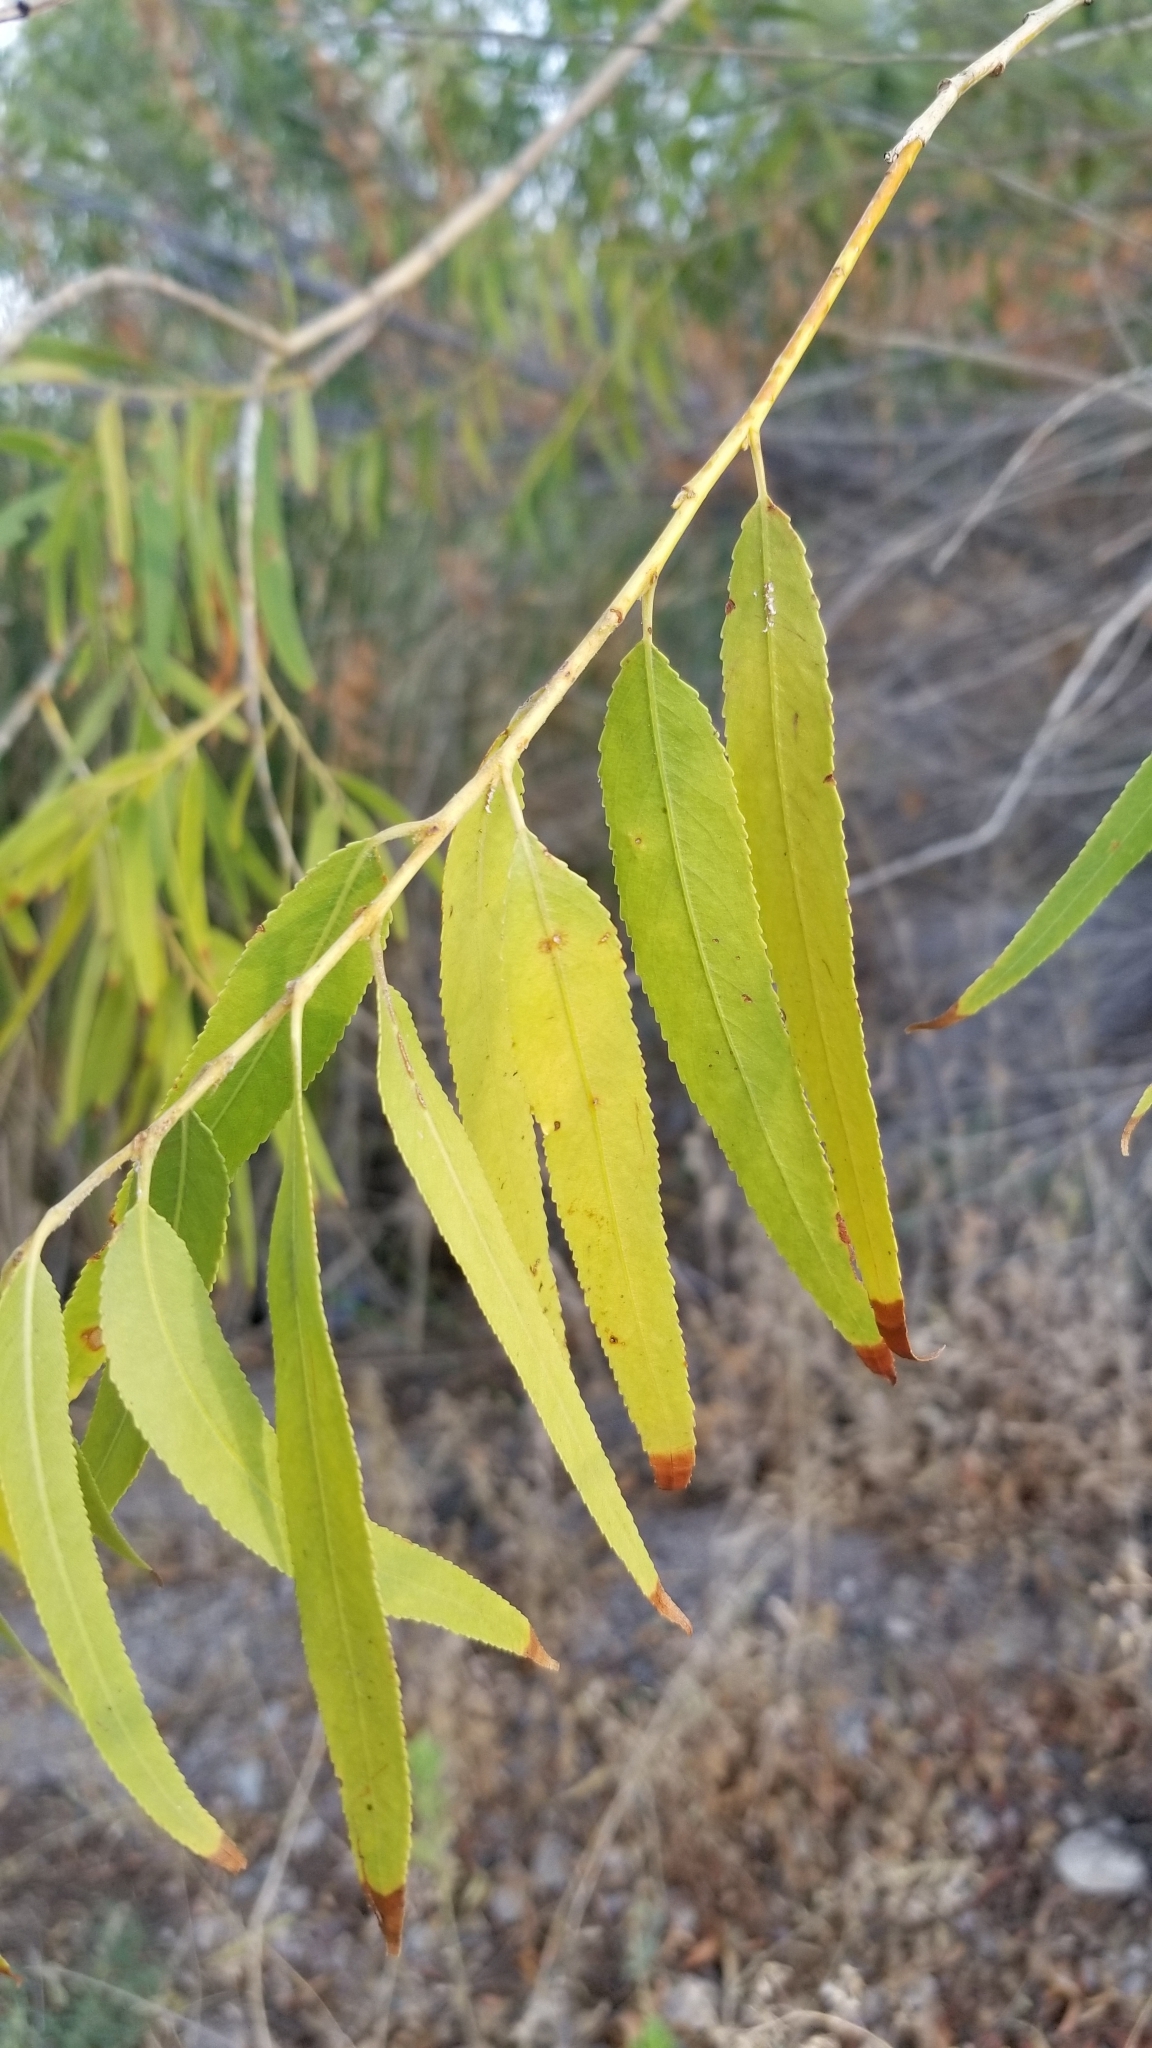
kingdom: Plantae
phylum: Tracheophyta
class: Magnoliopsida
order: Malpighiales
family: Salicaceae
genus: Salix
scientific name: Salix gooddingii
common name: Goodding's willow
